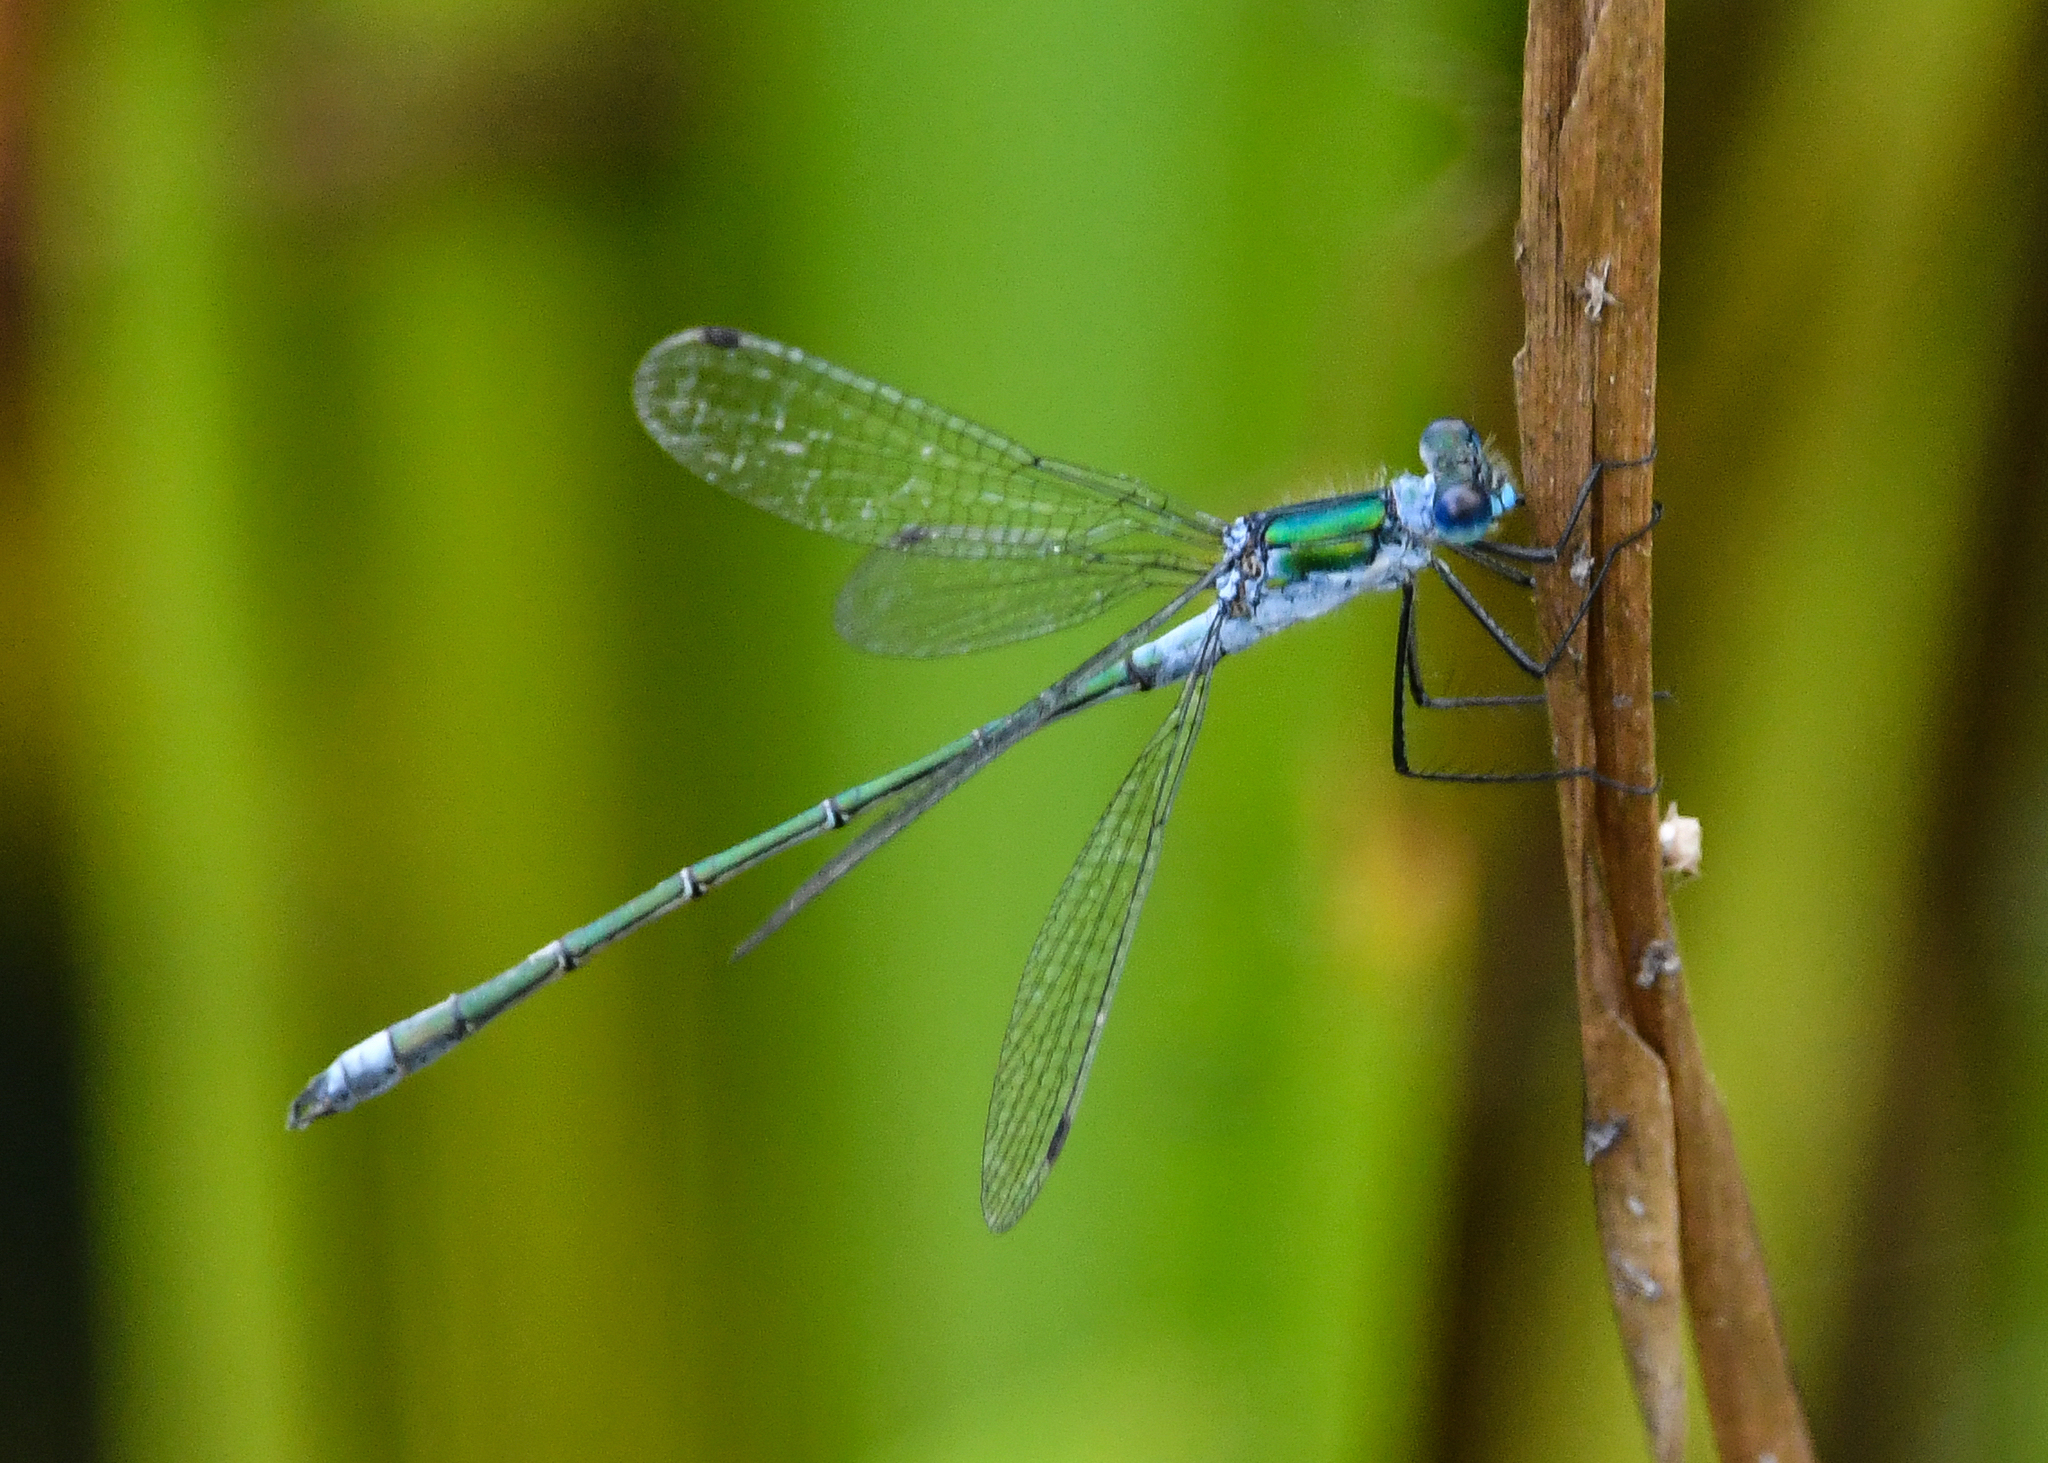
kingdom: Animalia
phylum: Arthropoda
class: Insecta
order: Odonata
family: Lestidae
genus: Lestes
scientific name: Lestes sponsa
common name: Common spreadwing
